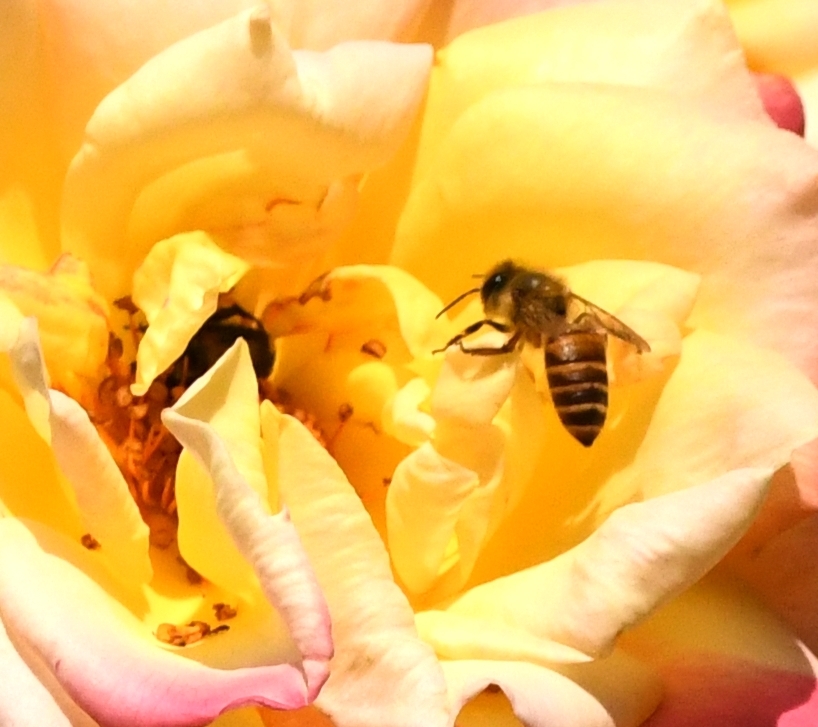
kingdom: Animalia
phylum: Arthropoda
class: Insecta
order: Hymenoptera
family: Apidae
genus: Apis
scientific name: Apis cerana
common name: Honey bee
